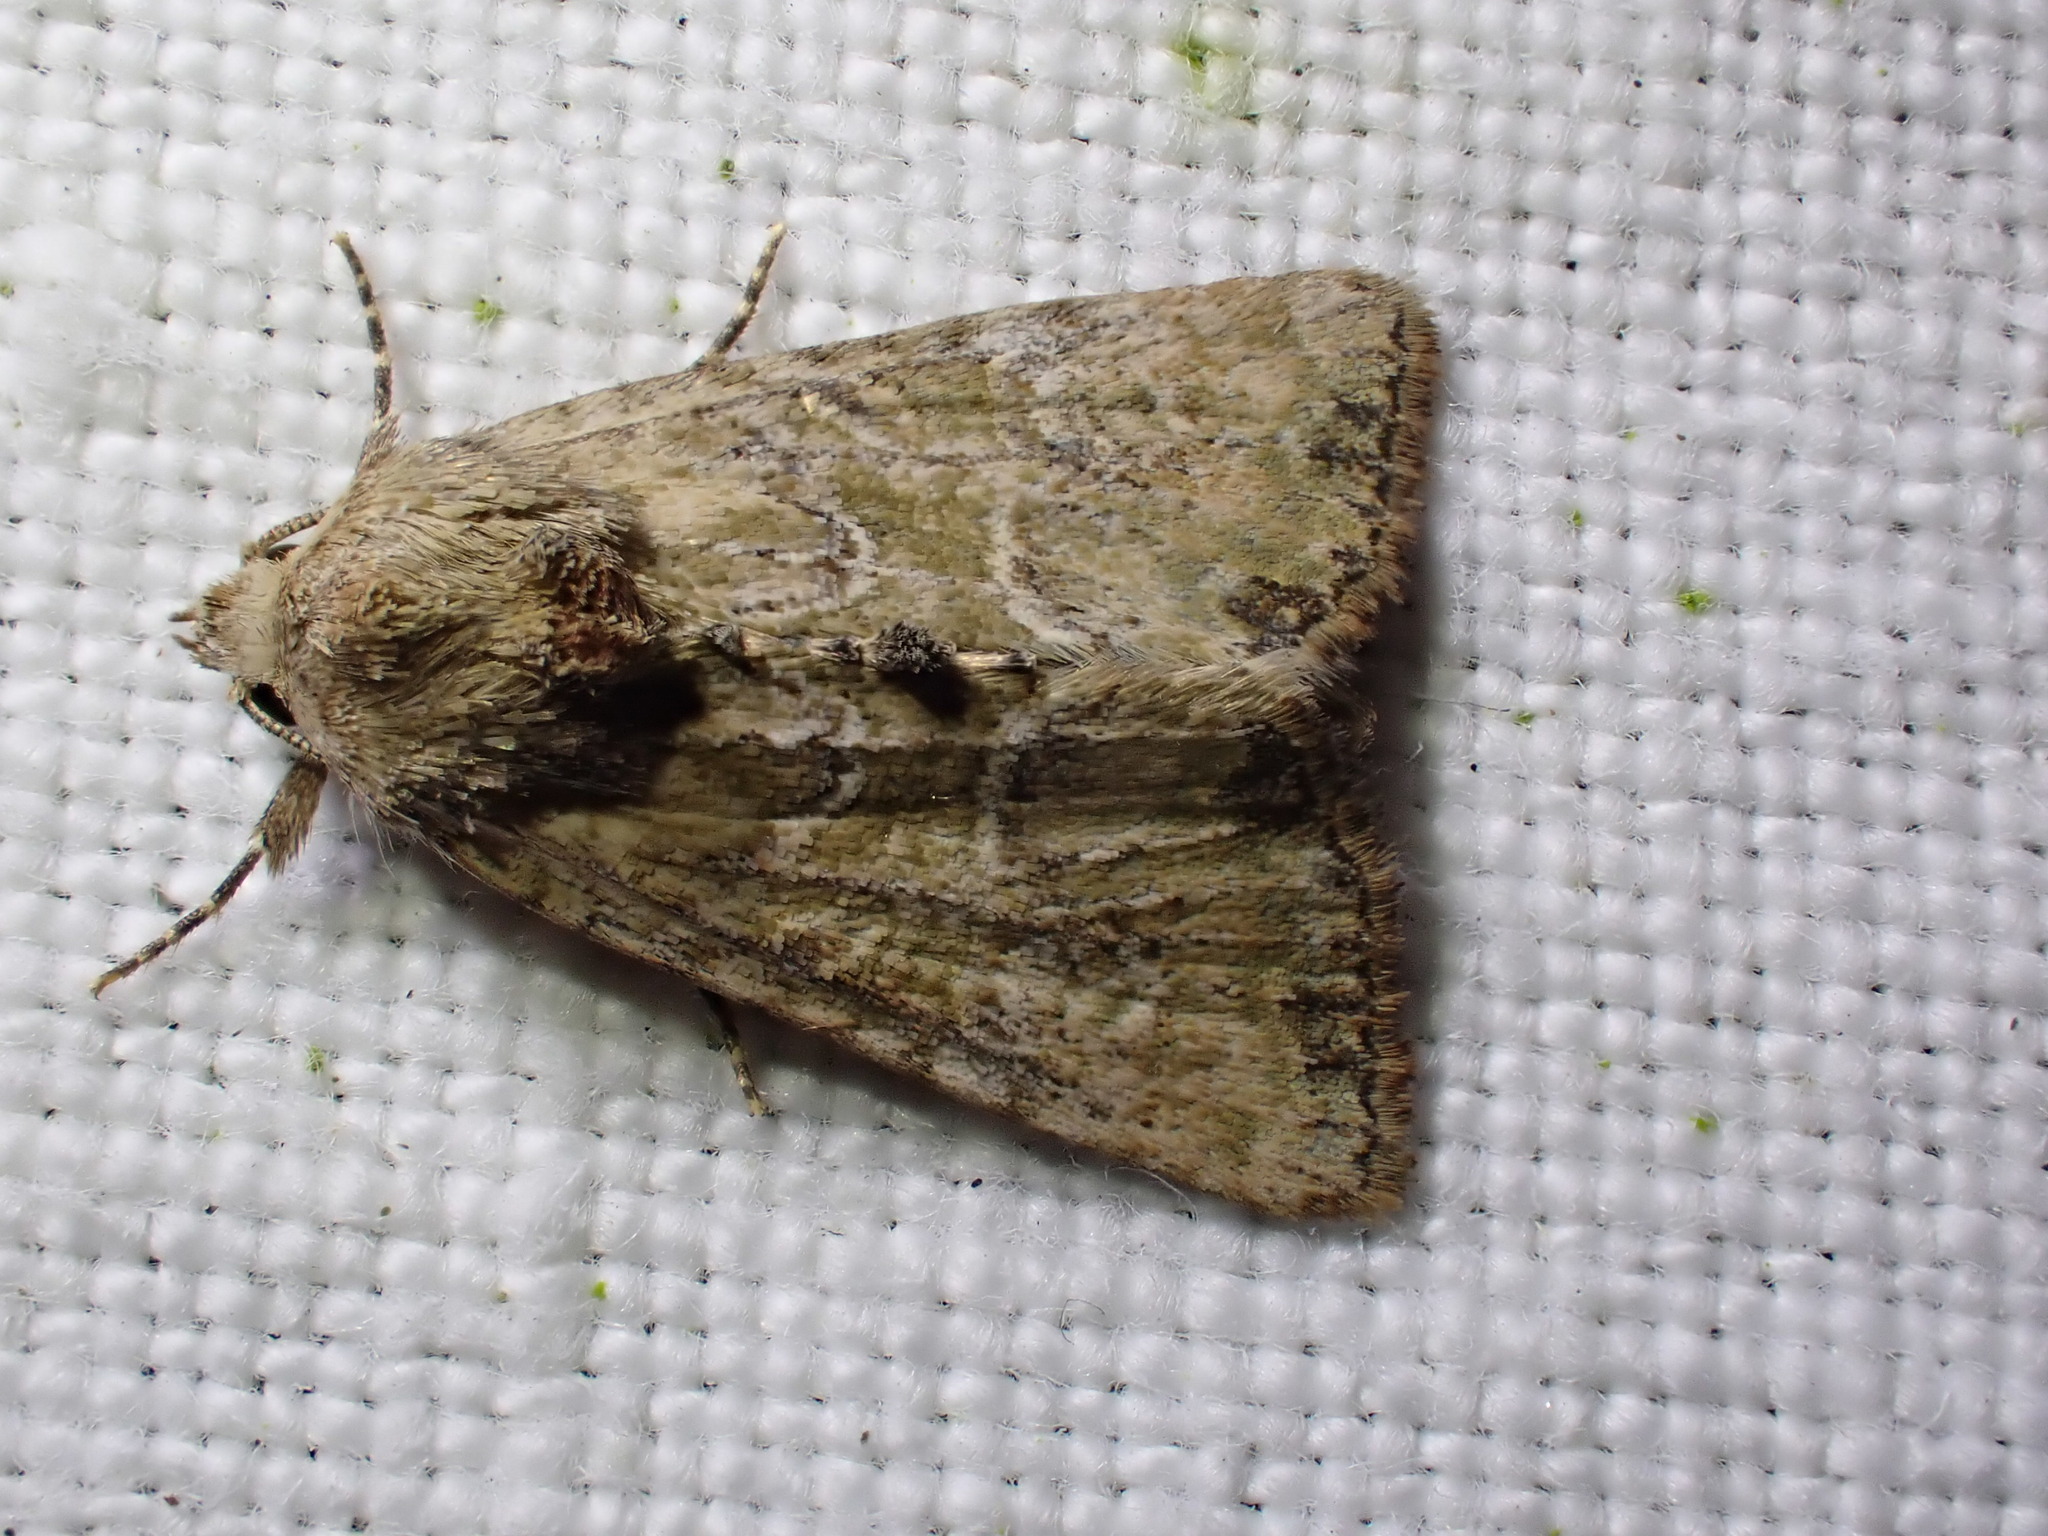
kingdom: Animalia
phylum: Arthropoda
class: Insecta
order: Lepidoptera
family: Noctuidae
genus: Mesoligia
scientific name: Mesoligia furuncula
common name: Cloaked minor
